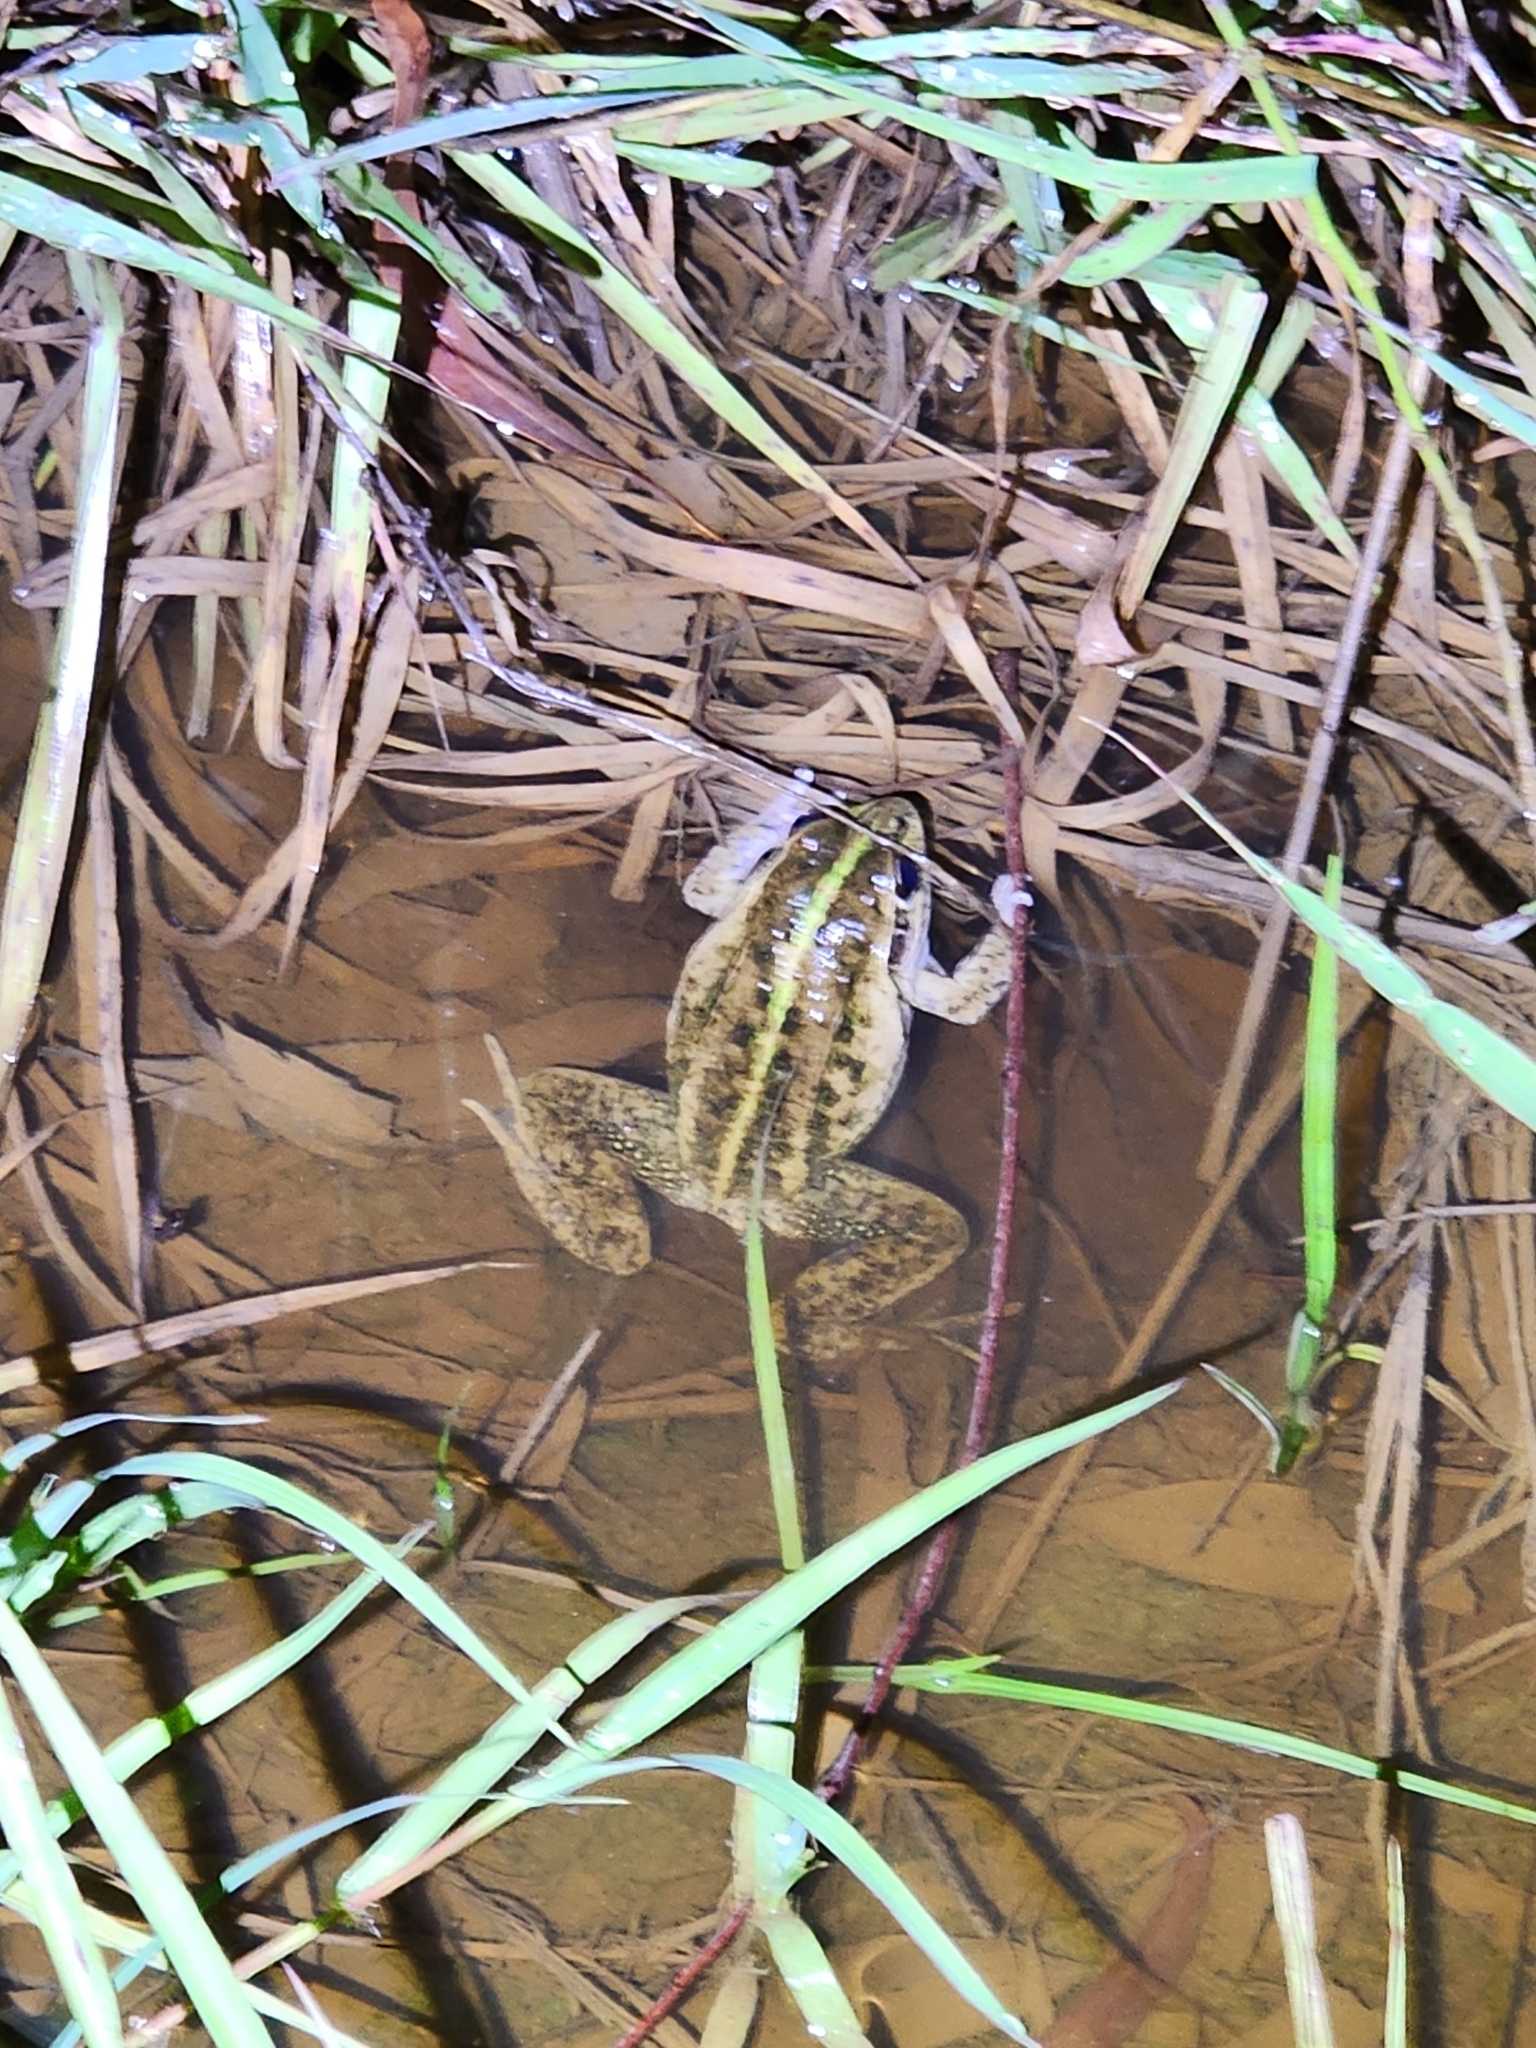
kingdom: Animalia
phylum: Chordata
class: Amphibia
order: Anura
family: Pelodryadidae
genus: Ranoidea
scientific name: Ranoidea alboguttata
